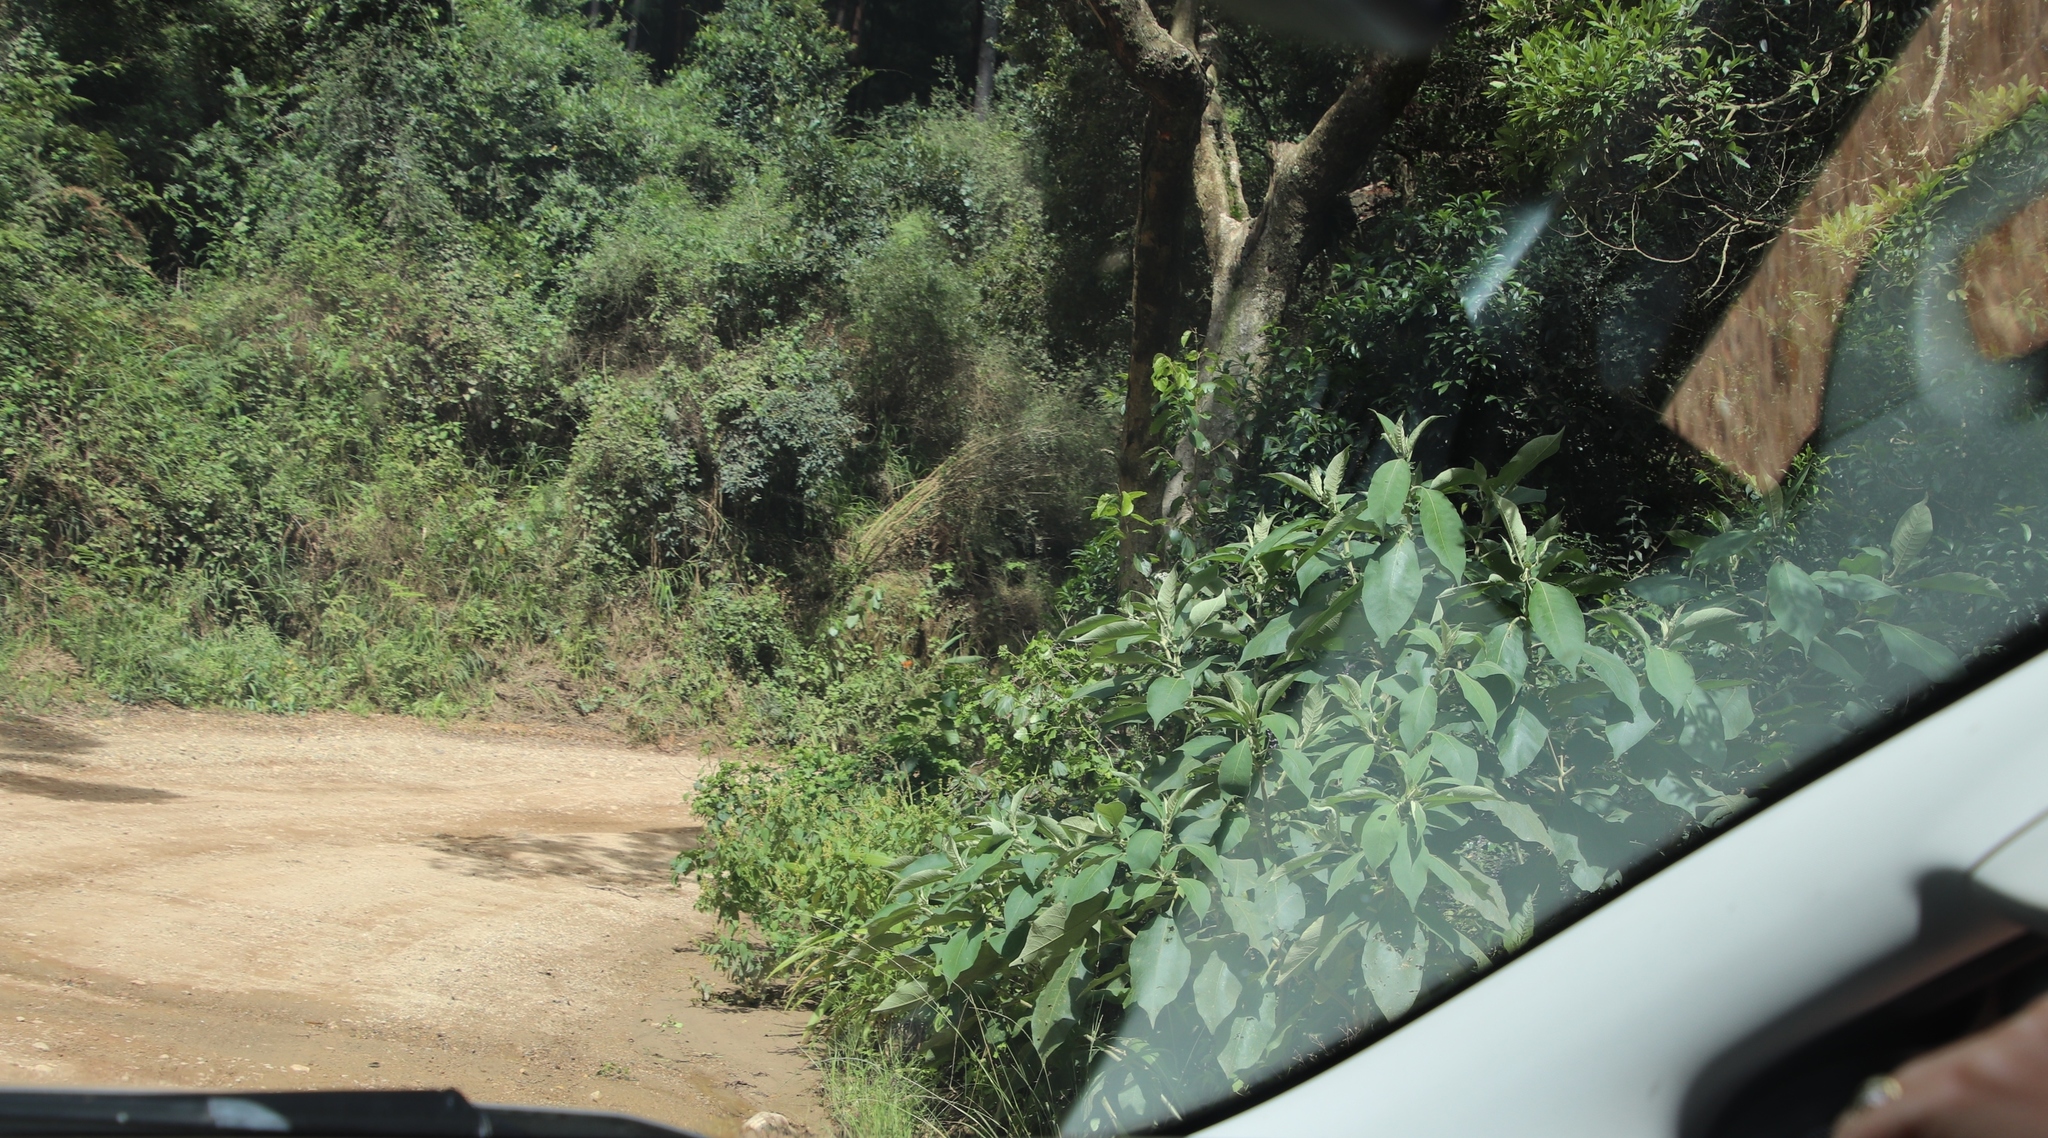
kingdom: Plantae
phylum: Tracheophyta
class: Magnoliopsida
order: Solanales
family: Solanaceae
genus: Solanum
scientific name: Solanum mauritianum
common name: Earleaf nightshade
